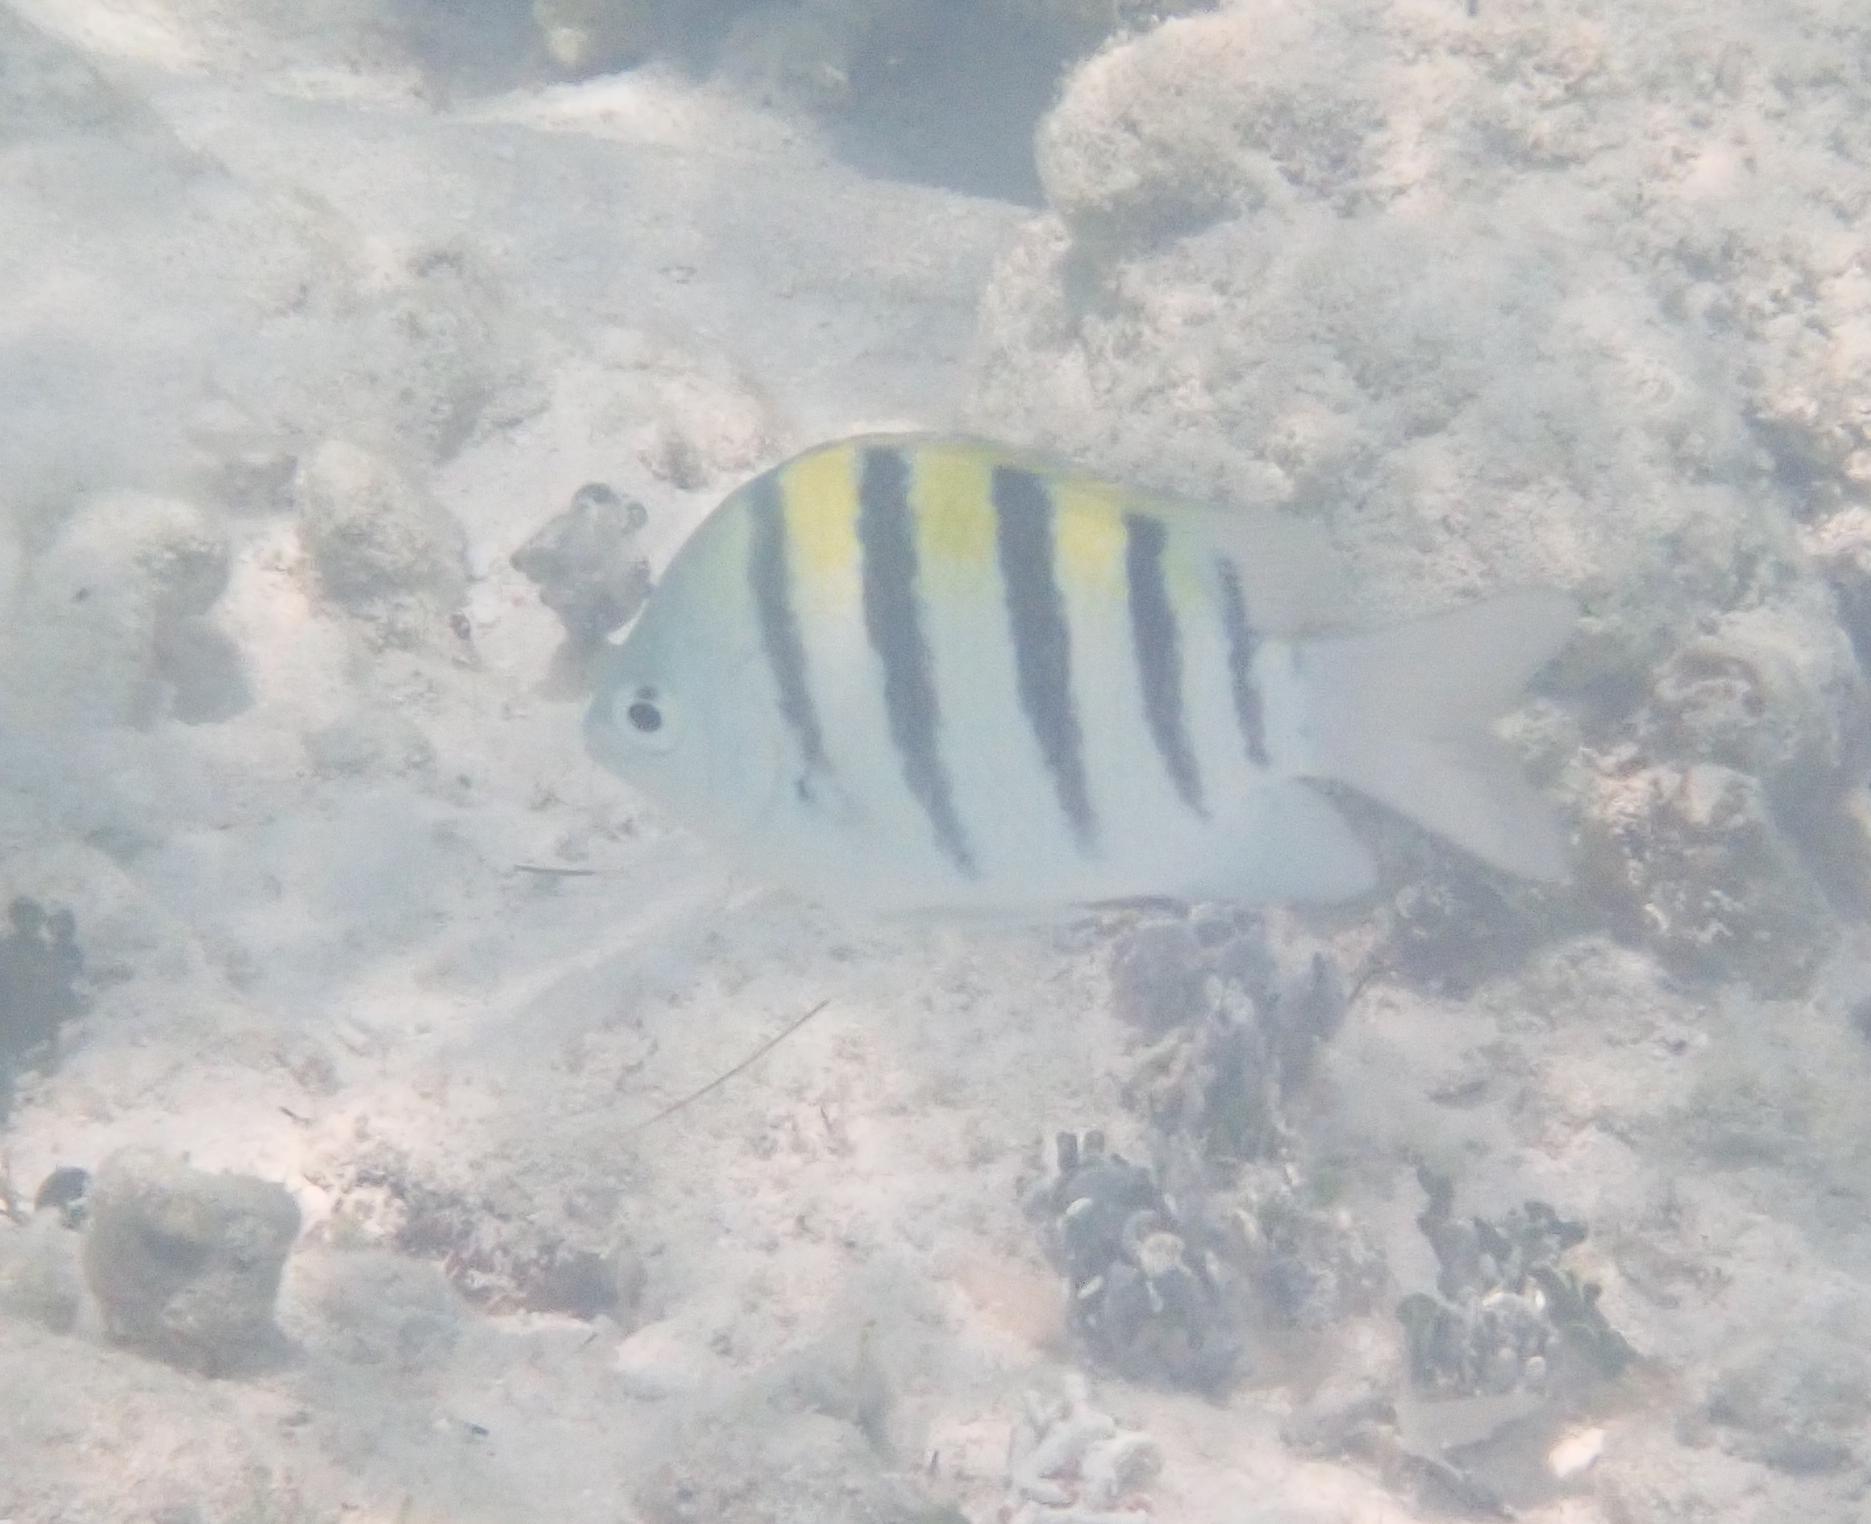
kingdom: Animalia
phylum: Chordata
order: Perciformes
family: Pomacentridae
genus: Abudefduf
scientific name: Abudefduf saxatilis
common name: Sergeant major
